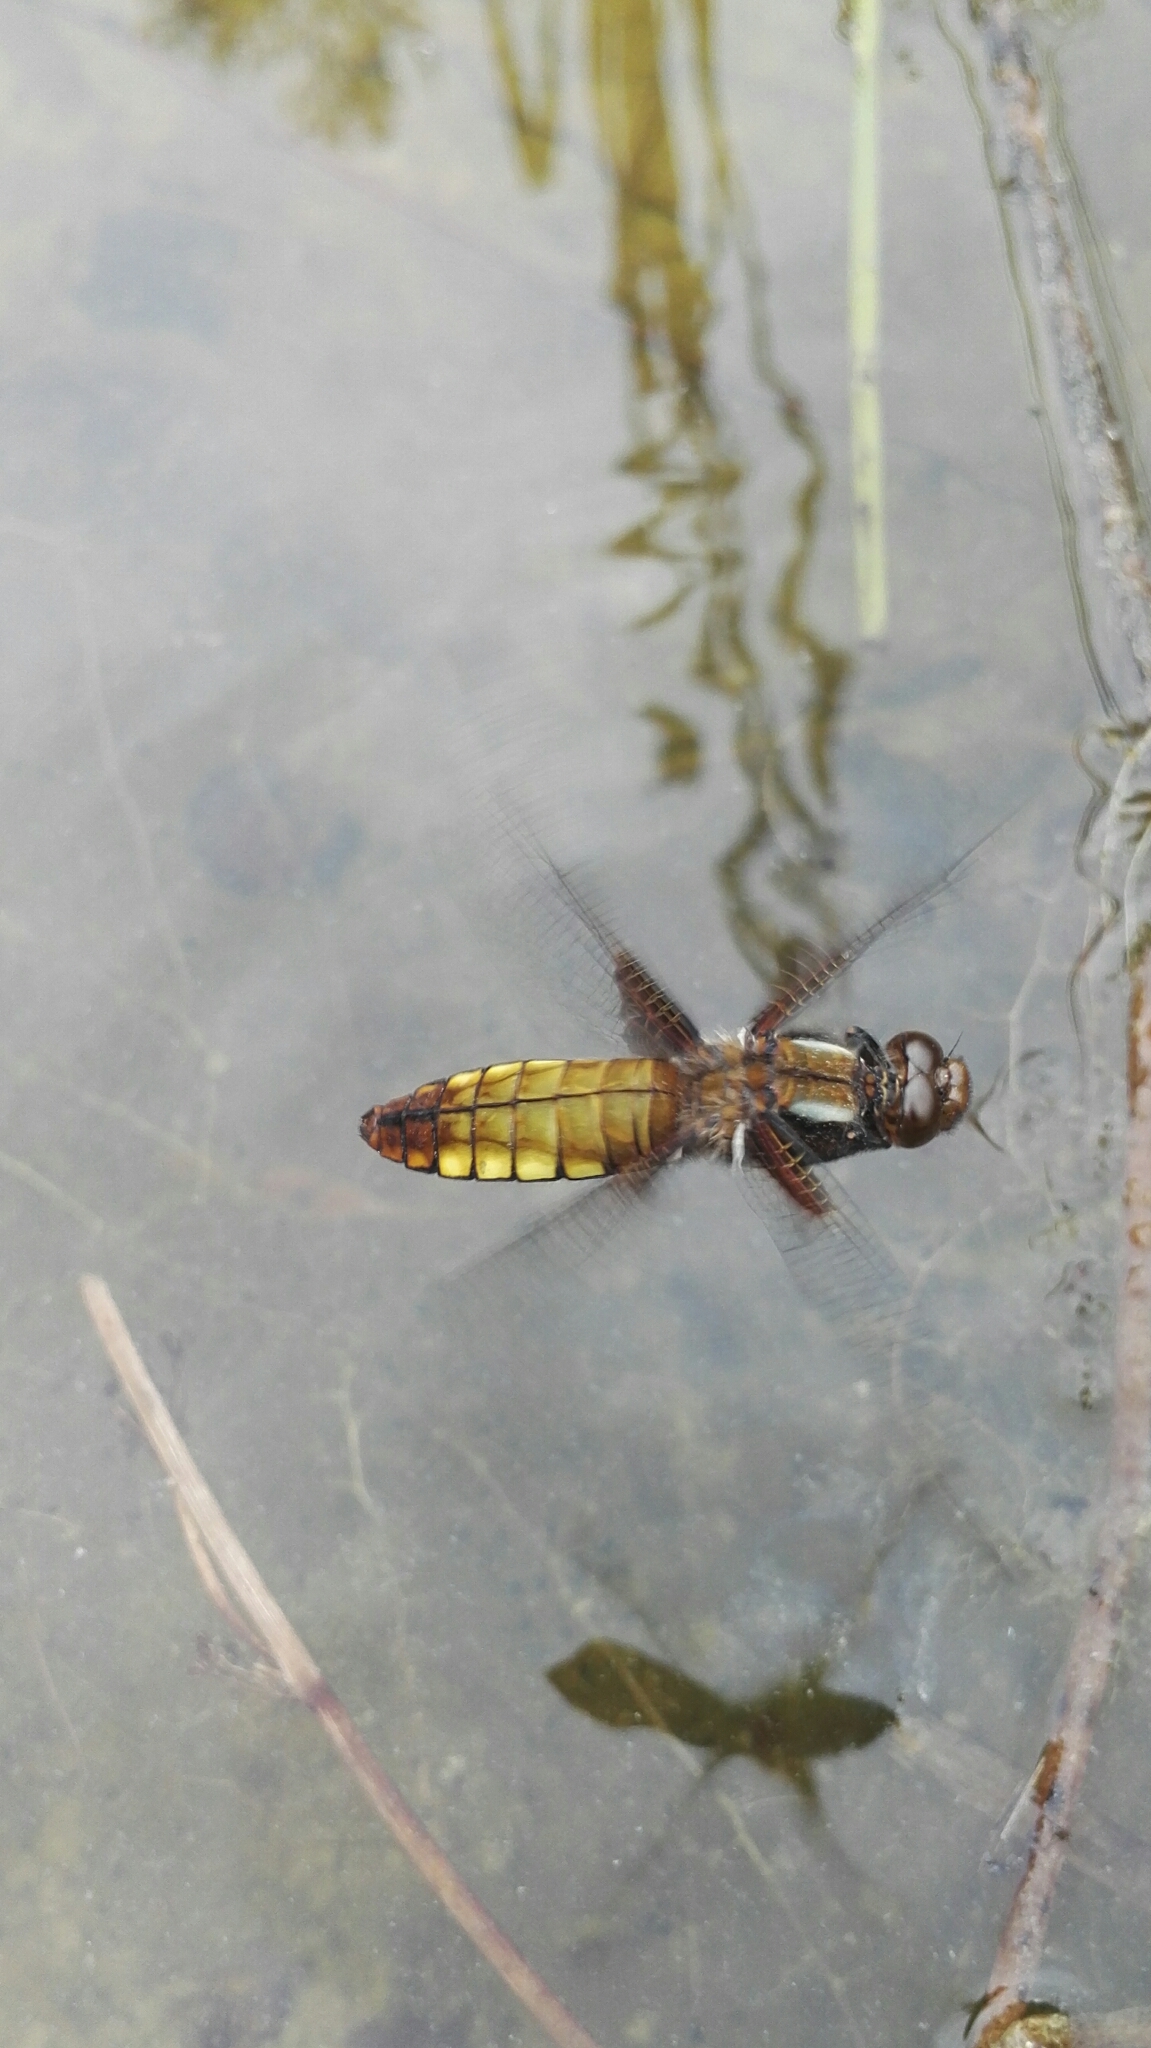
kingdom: Animalia
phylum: Arthropoda
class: Insecta
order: Odonata
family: Libellulidae
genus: Libellula
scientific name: Libellula depressa
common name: Broad-bodied chaser
